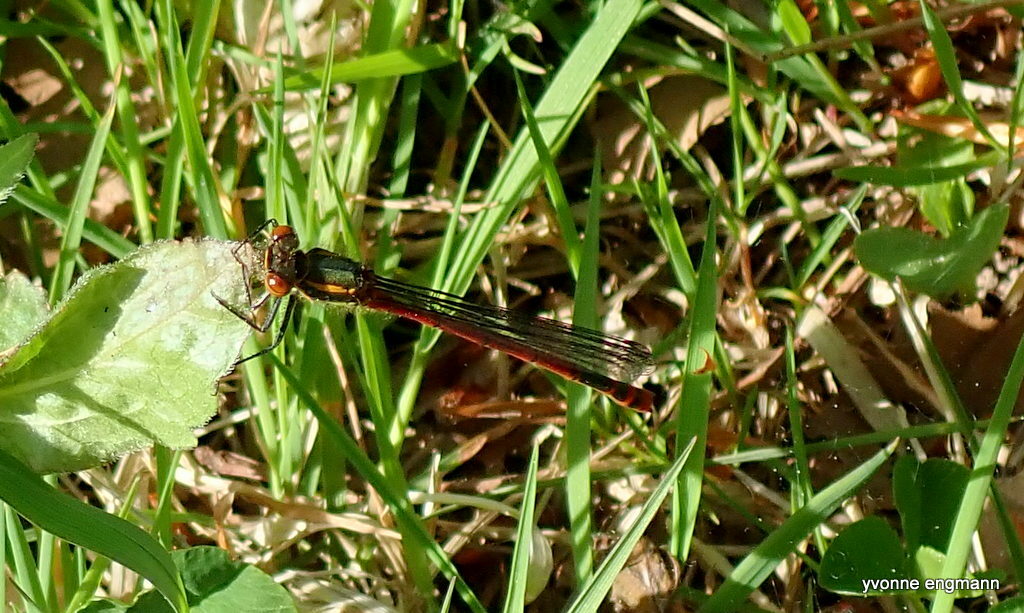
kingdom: Animalia
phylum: Arthropoda
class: Insecta
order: Odonata
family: Coenagrionidae
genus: Pyrrhosoma
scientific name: Pyrrhosoma nymphula
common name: Large red damsel
